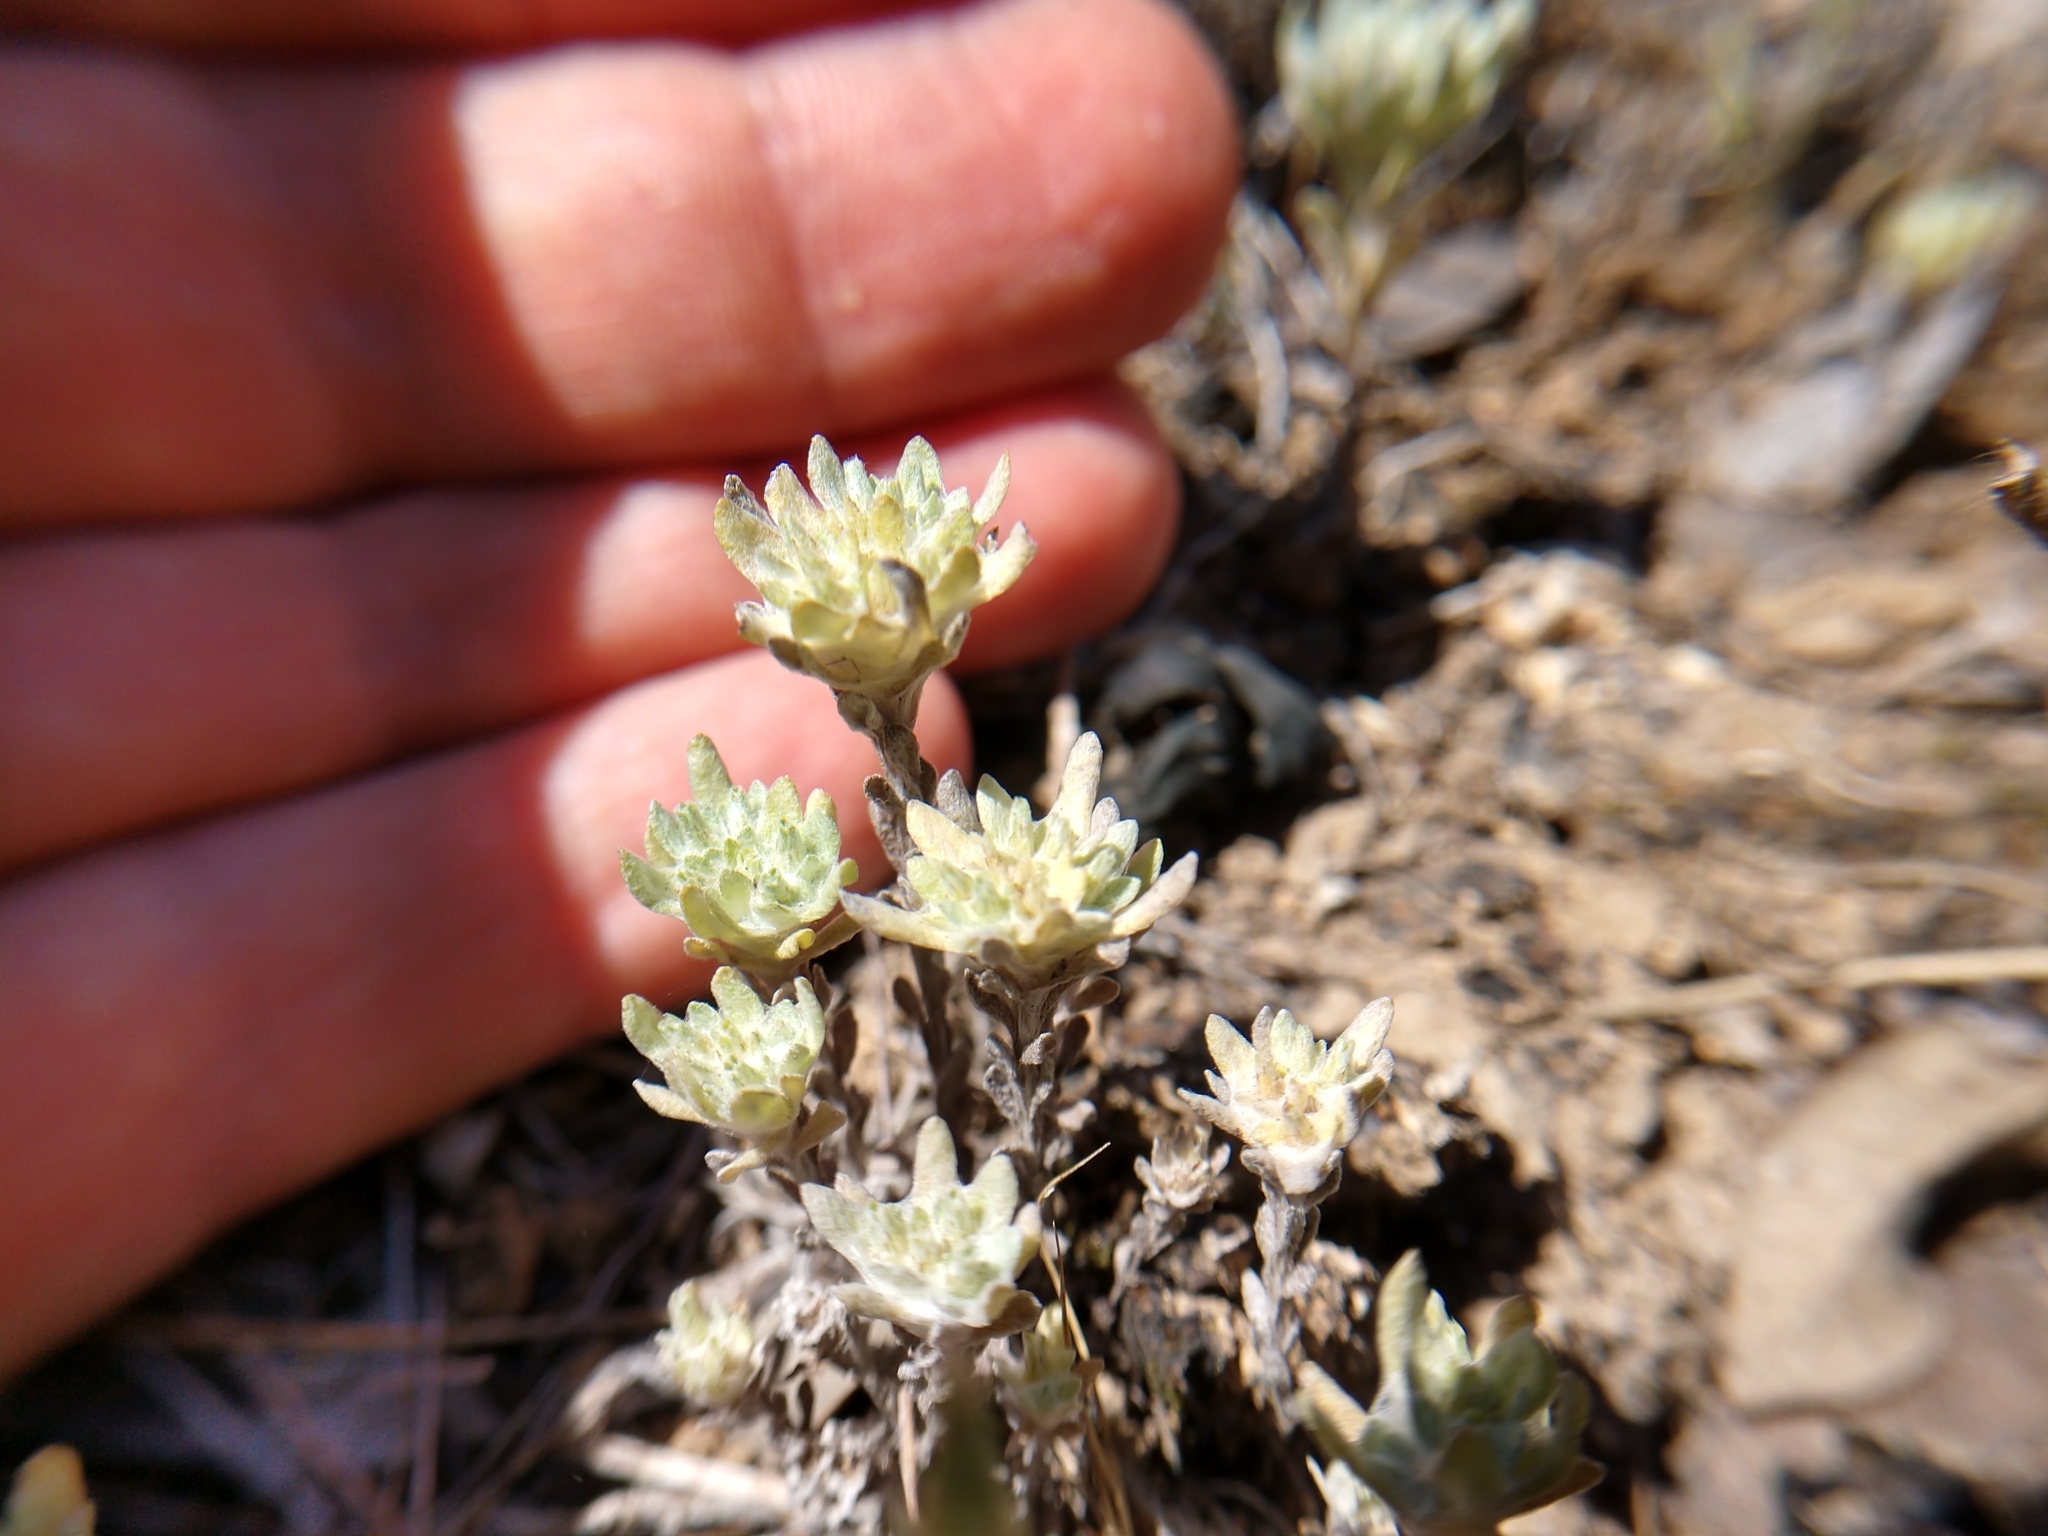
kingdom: Plantae
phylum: Tracheophyta
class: Magnoliopsida
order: Asterales
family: Asteraceae
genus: Diaperia
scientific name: Diaperia prolifera
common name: Big-head rabbit-tobacco
